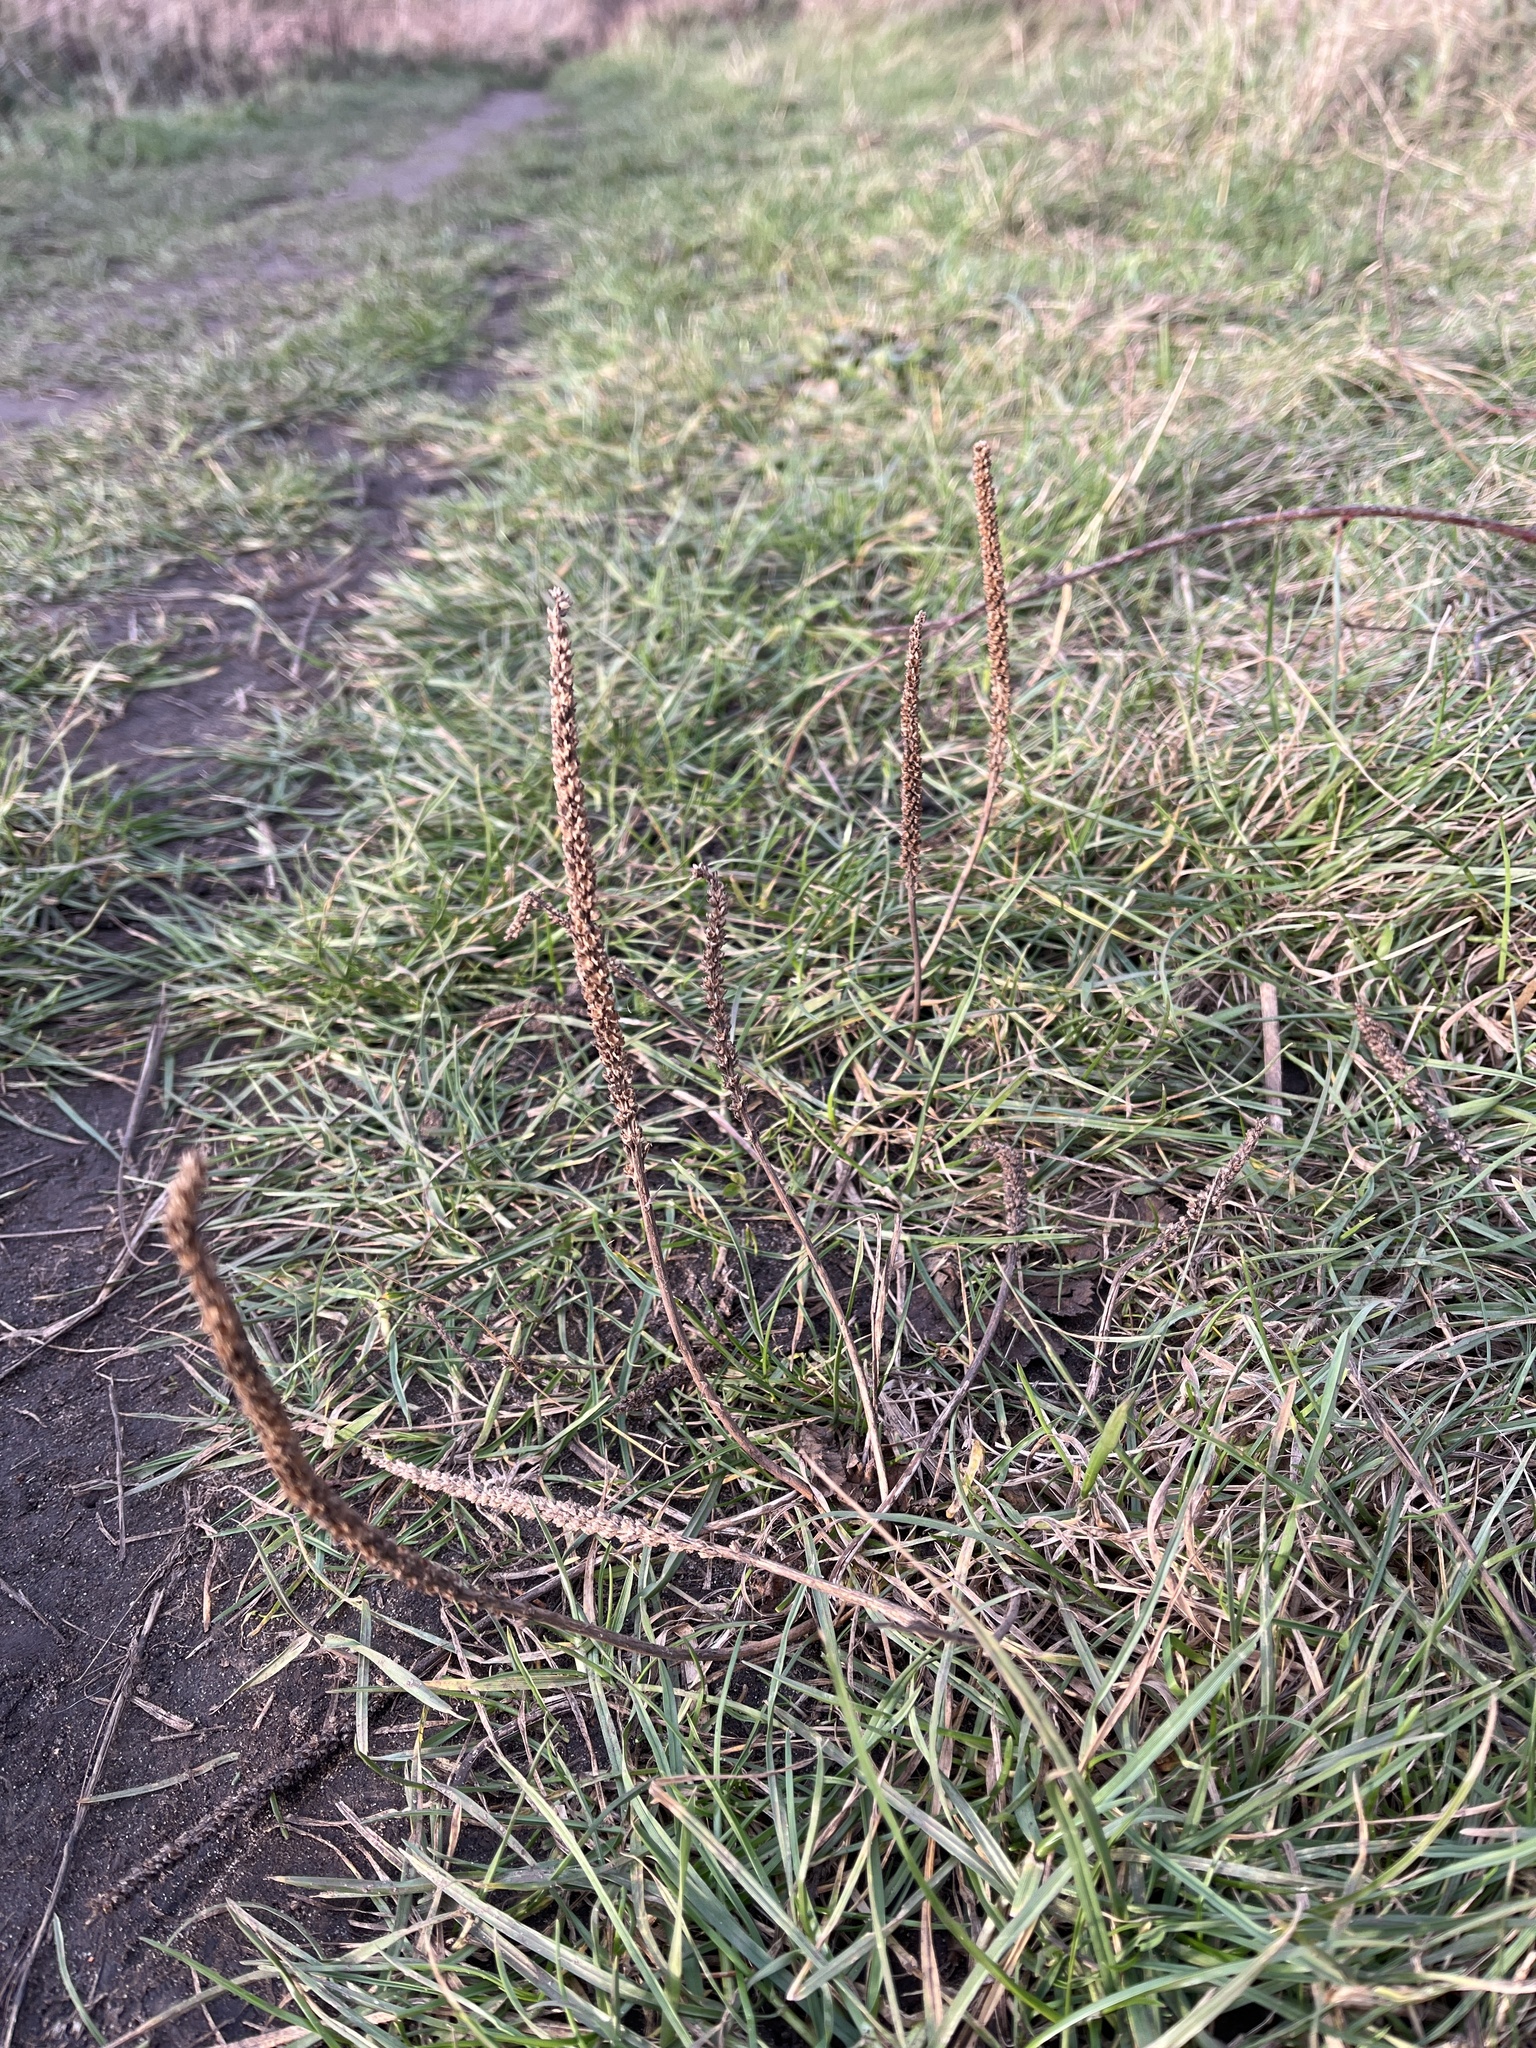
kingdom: Plantae
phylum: Tracheophyta
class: Magnoliopsida
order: Lamiales
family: Plantaginaceae
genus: Plantago
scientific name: Plantago major
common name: Common plantain
